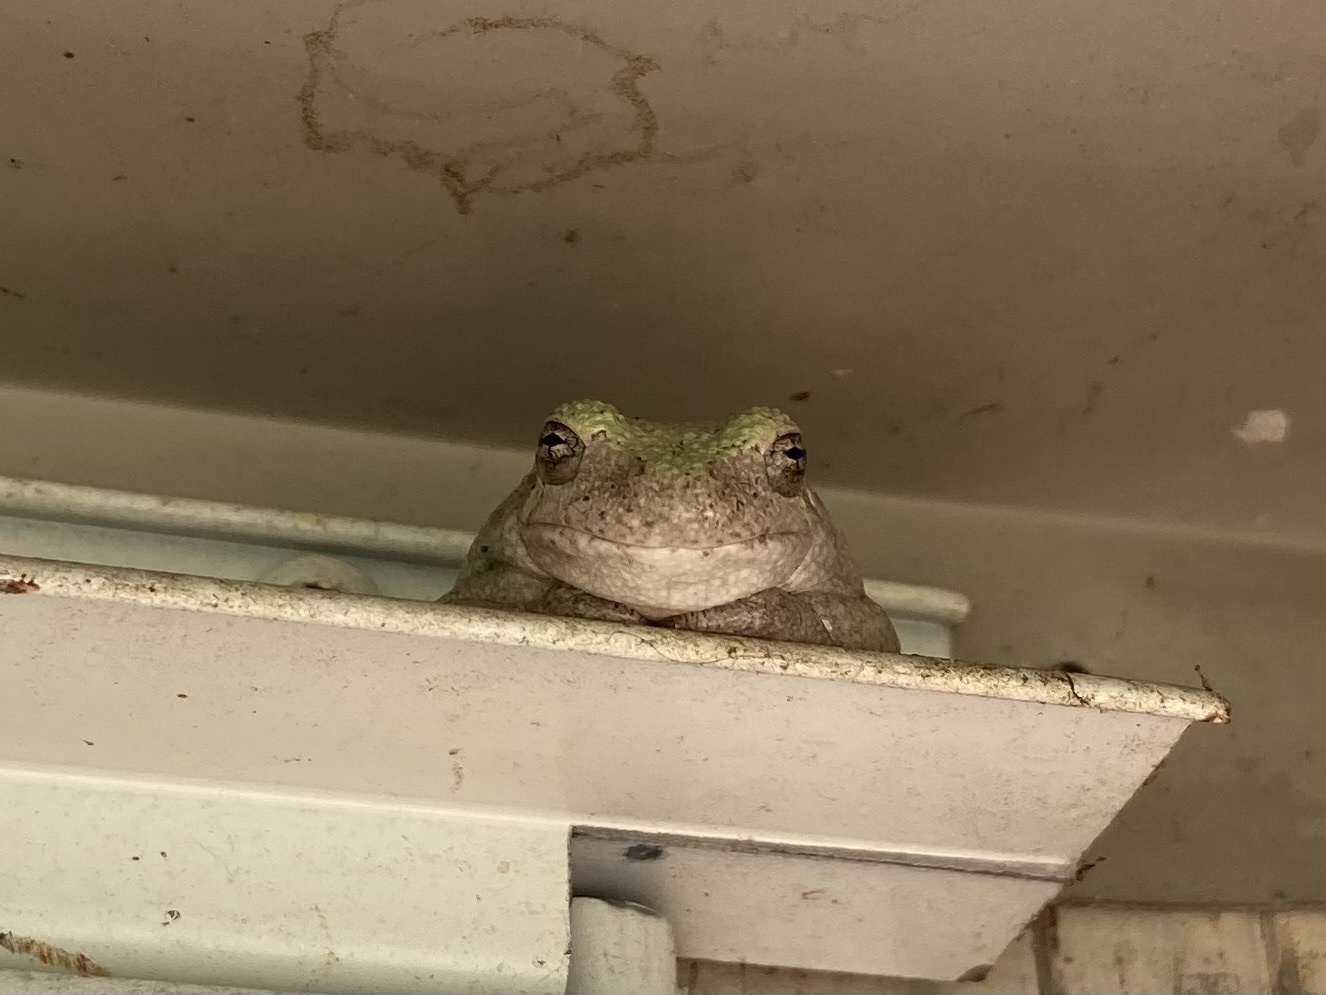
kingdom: Animalia
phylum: Chordata
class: Amphibia
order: Anura
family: Hylidae
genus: Dryophytes
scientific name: Dryophytes chrysoscelis
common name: Cope's gray treefrog
